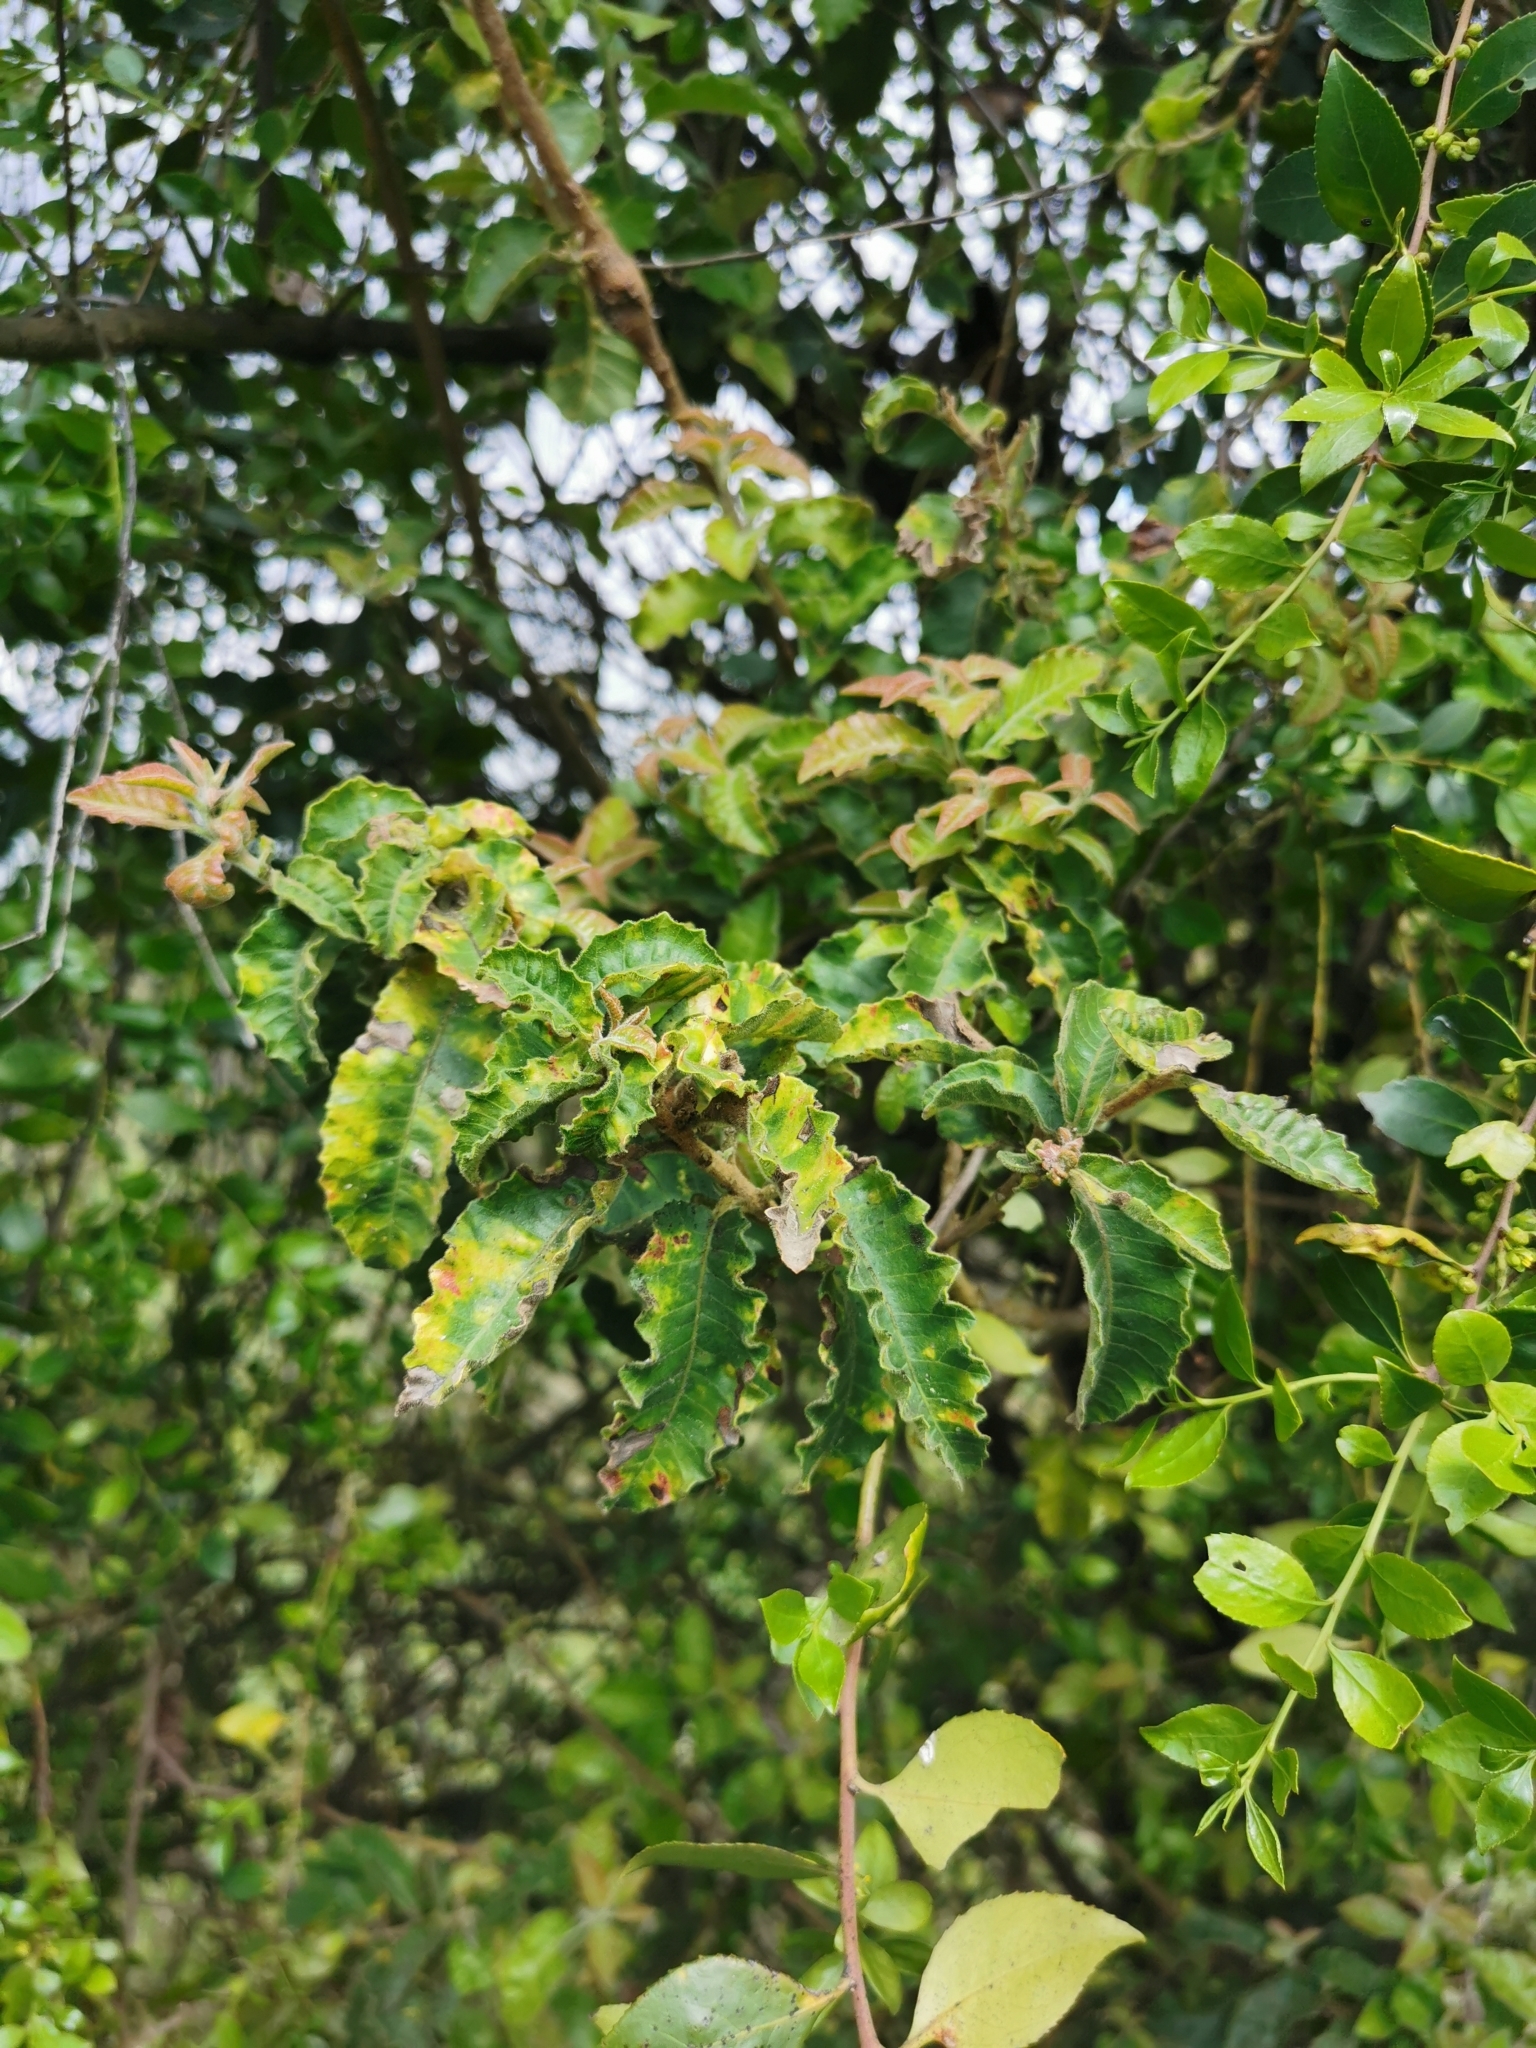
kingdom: Plantae
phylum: Tracheophyta
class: Magnoliopsida
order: Sapindales
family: Anacardiaceae
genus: Schinus
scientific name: Schinus latifolia
